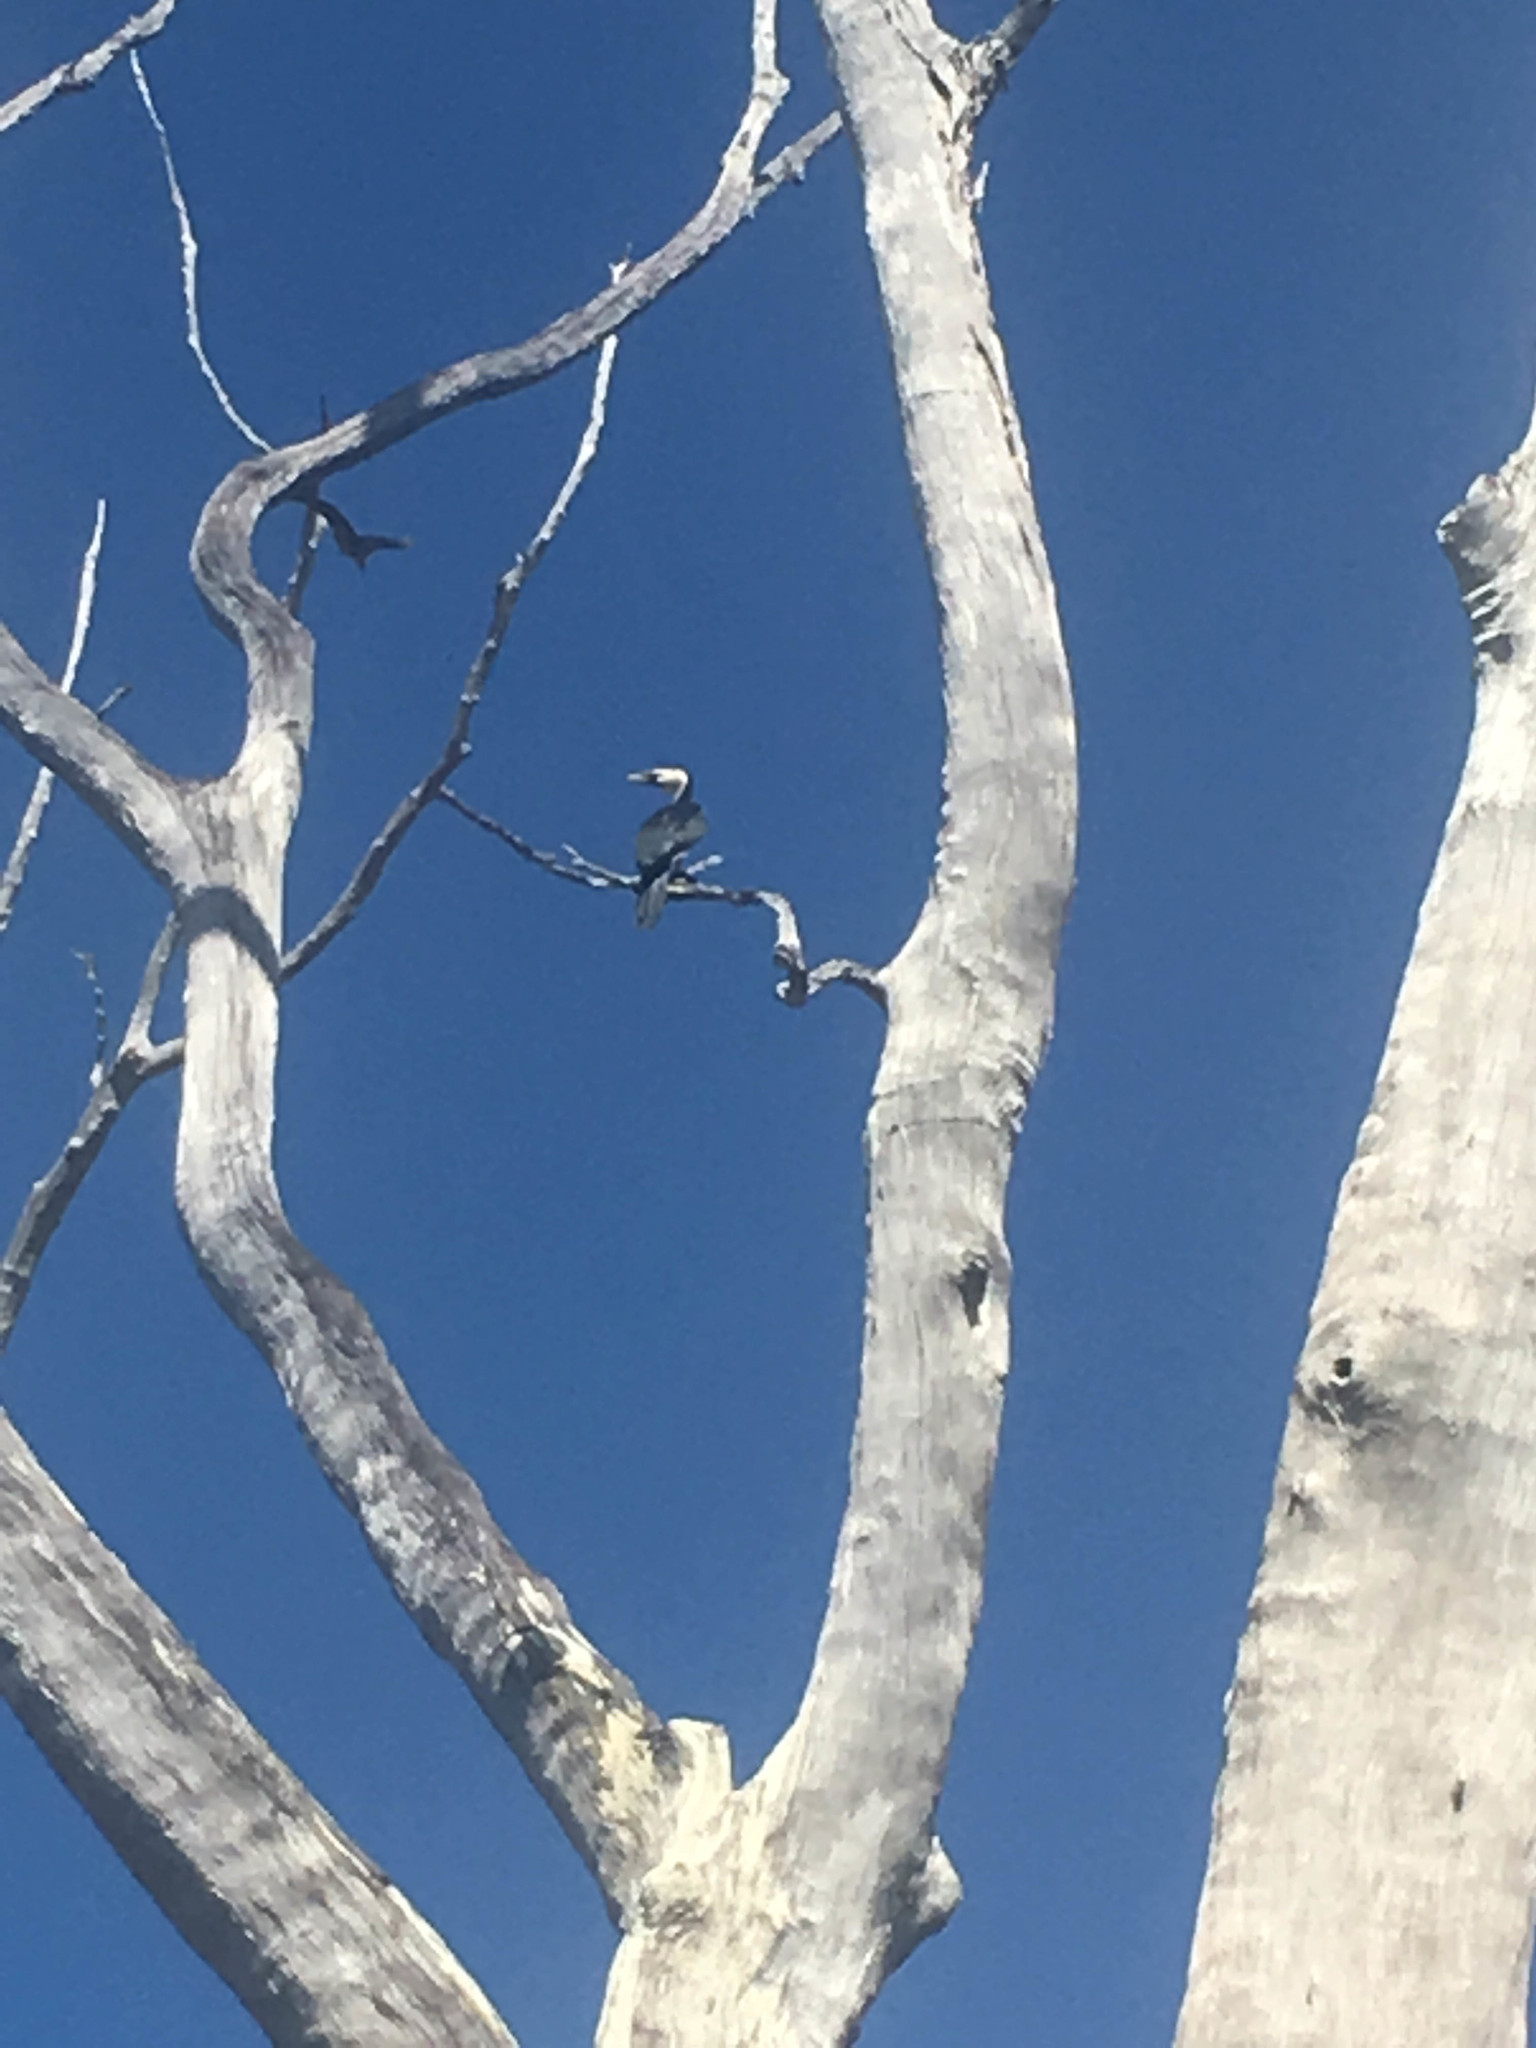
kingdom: Animalia
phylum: Chordata
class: Aves
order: Suliformes
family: Phalacrocoracidae
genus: Microcarbo
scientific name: Microcarbo melanoleucos
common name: Little pied cormorant
